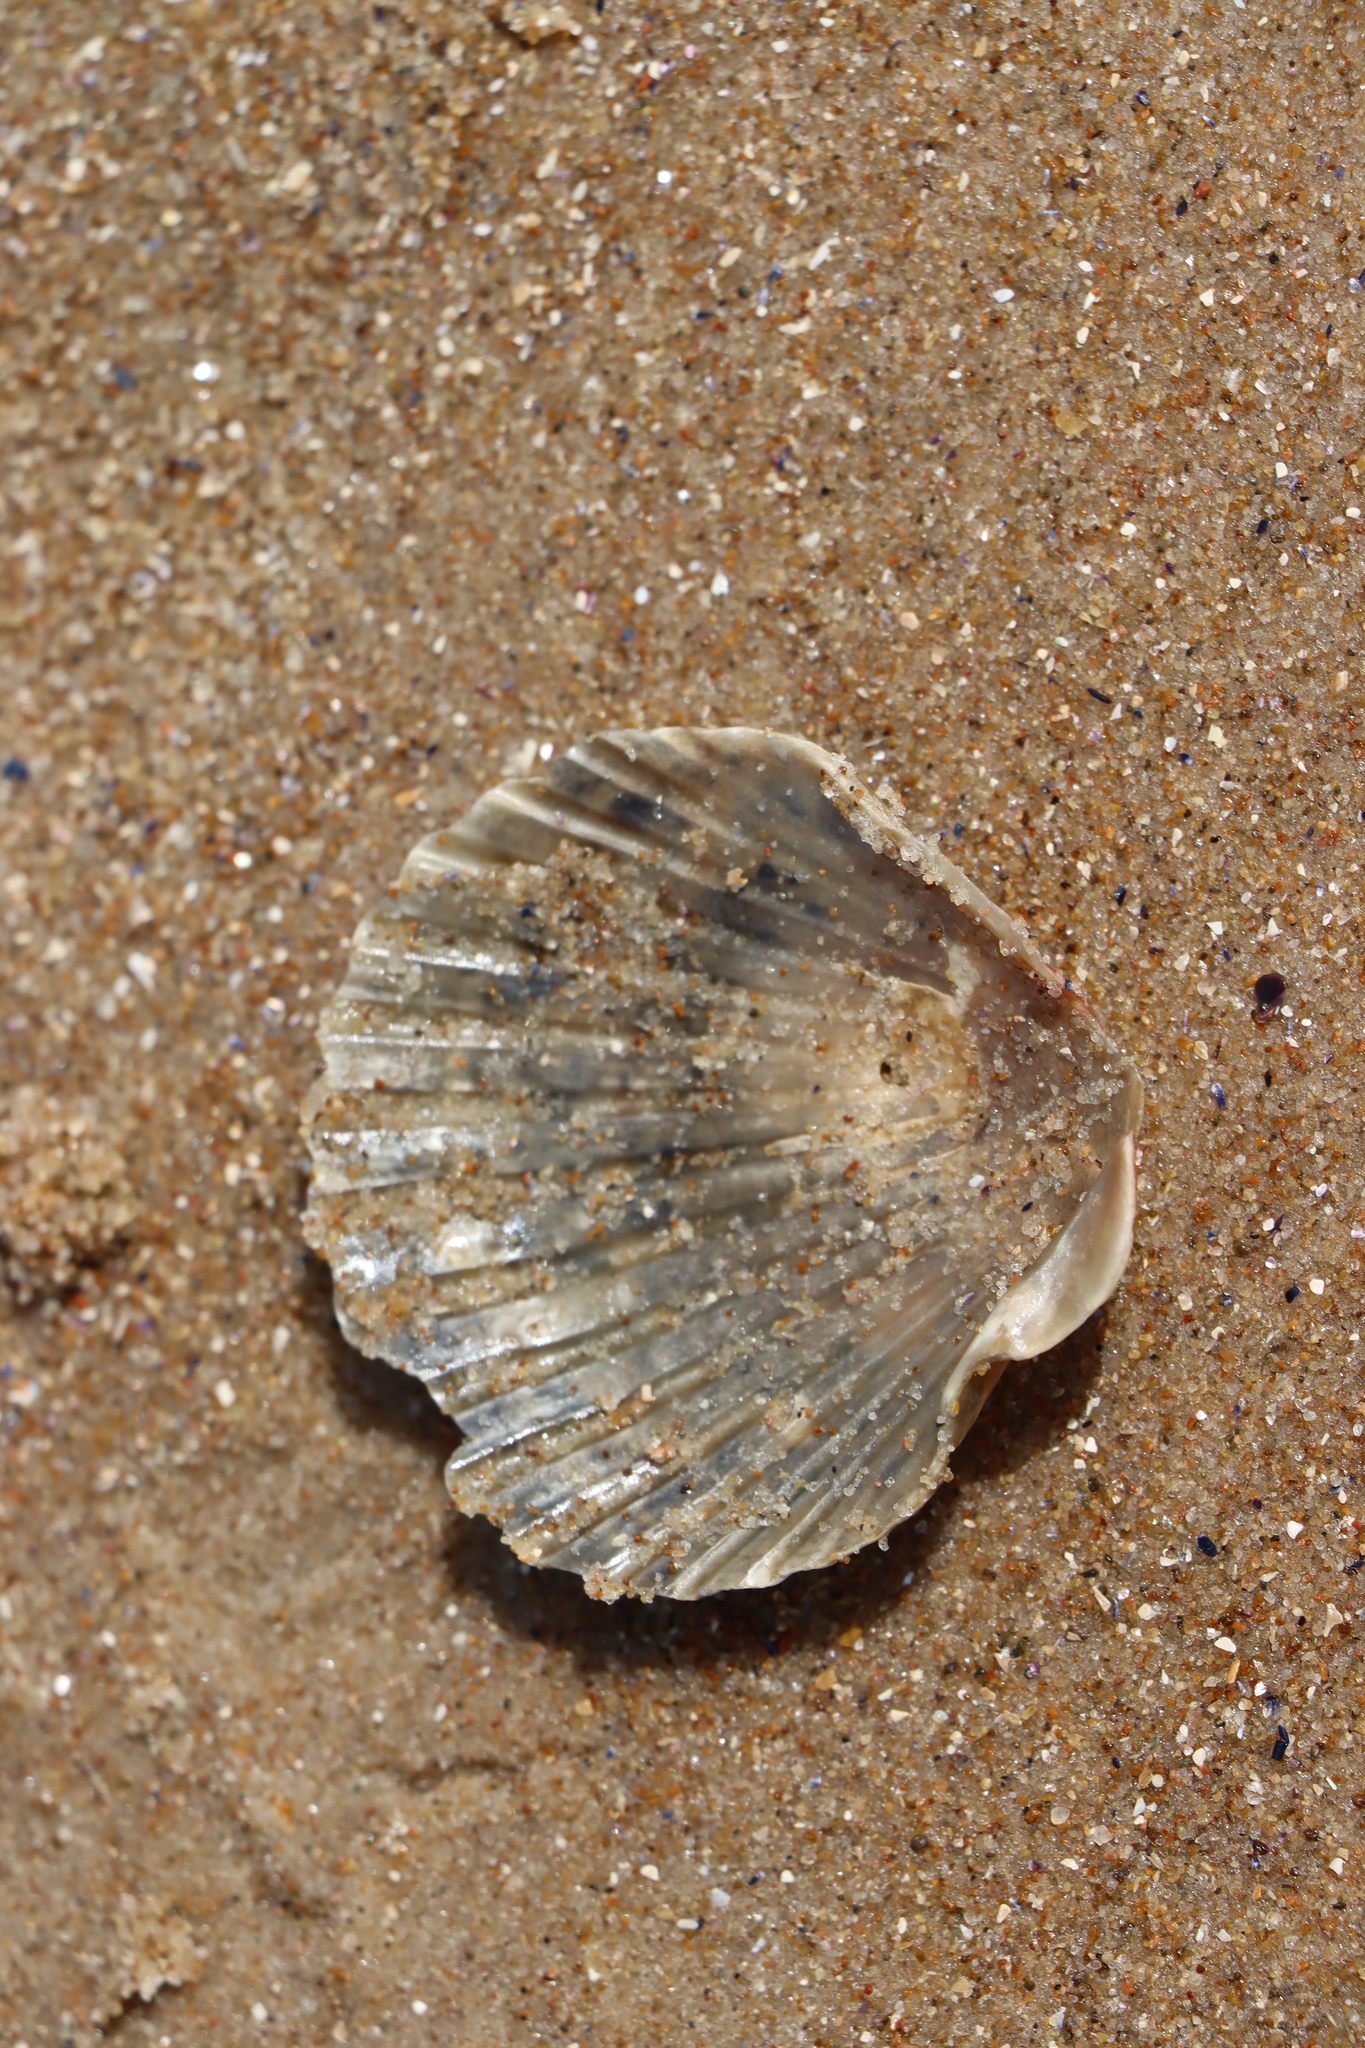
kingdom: Animalia
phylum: Mollusca
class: Bivalvia
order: Pectinida
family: Pectinidae
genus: Aequipecten
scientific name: Aequipecten tehuelchus
